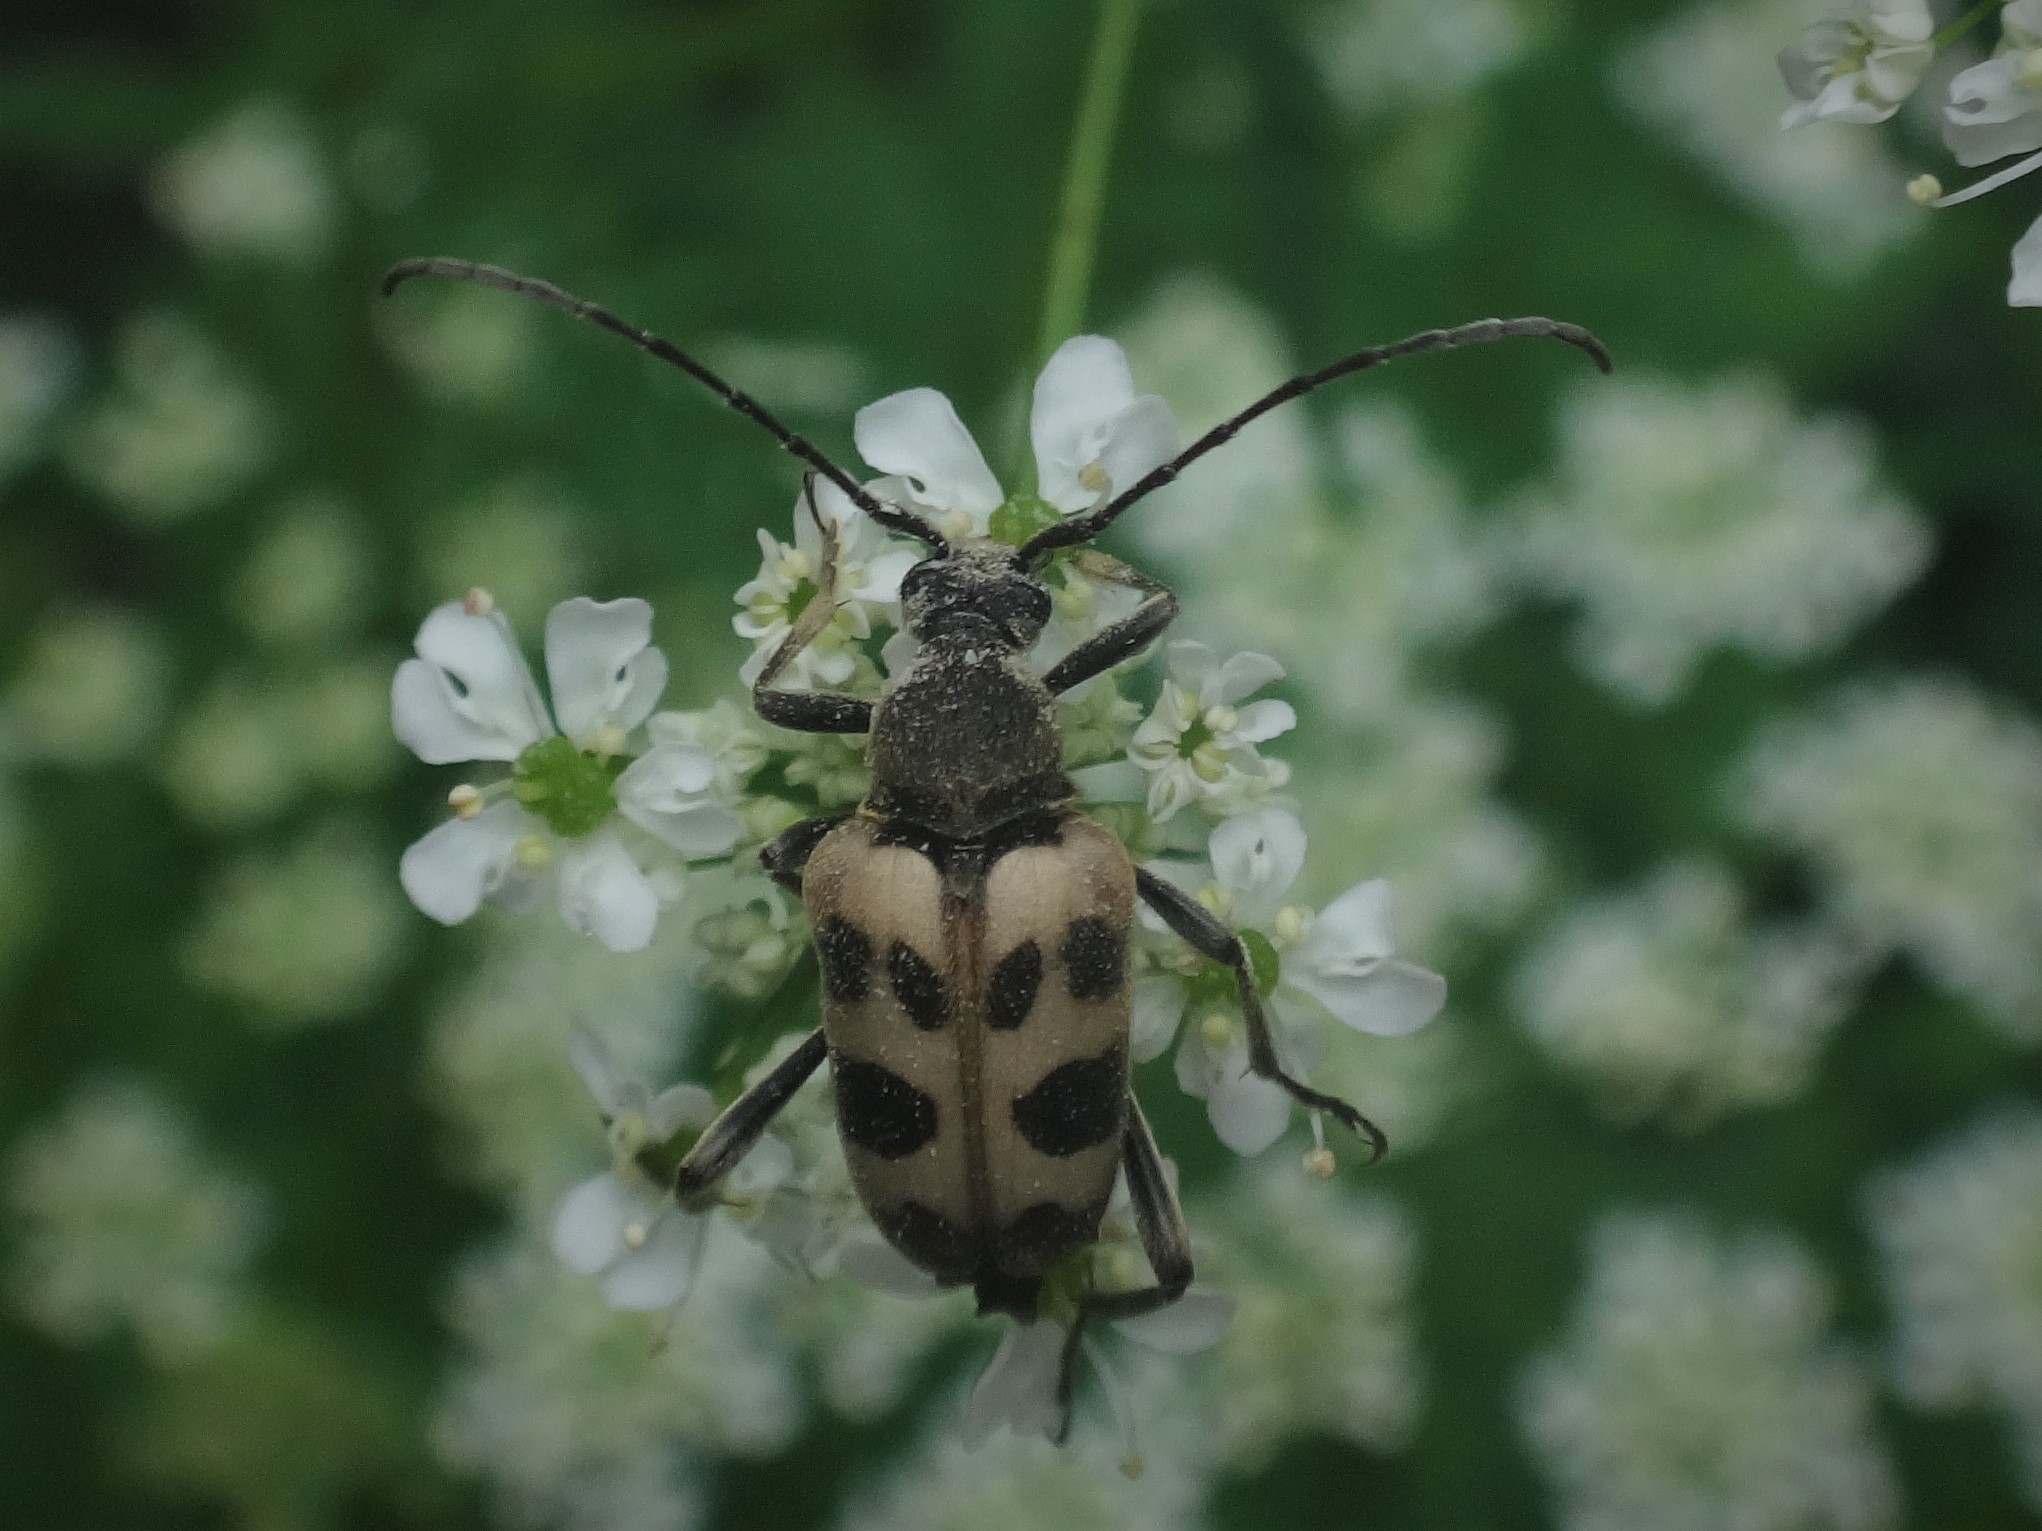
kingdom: Animalia
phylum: Arthropoda
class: Insecta
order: Coleoptera
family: Cerambycidae
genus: Pachytodes
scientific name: Pachytodes cerambyciformis
